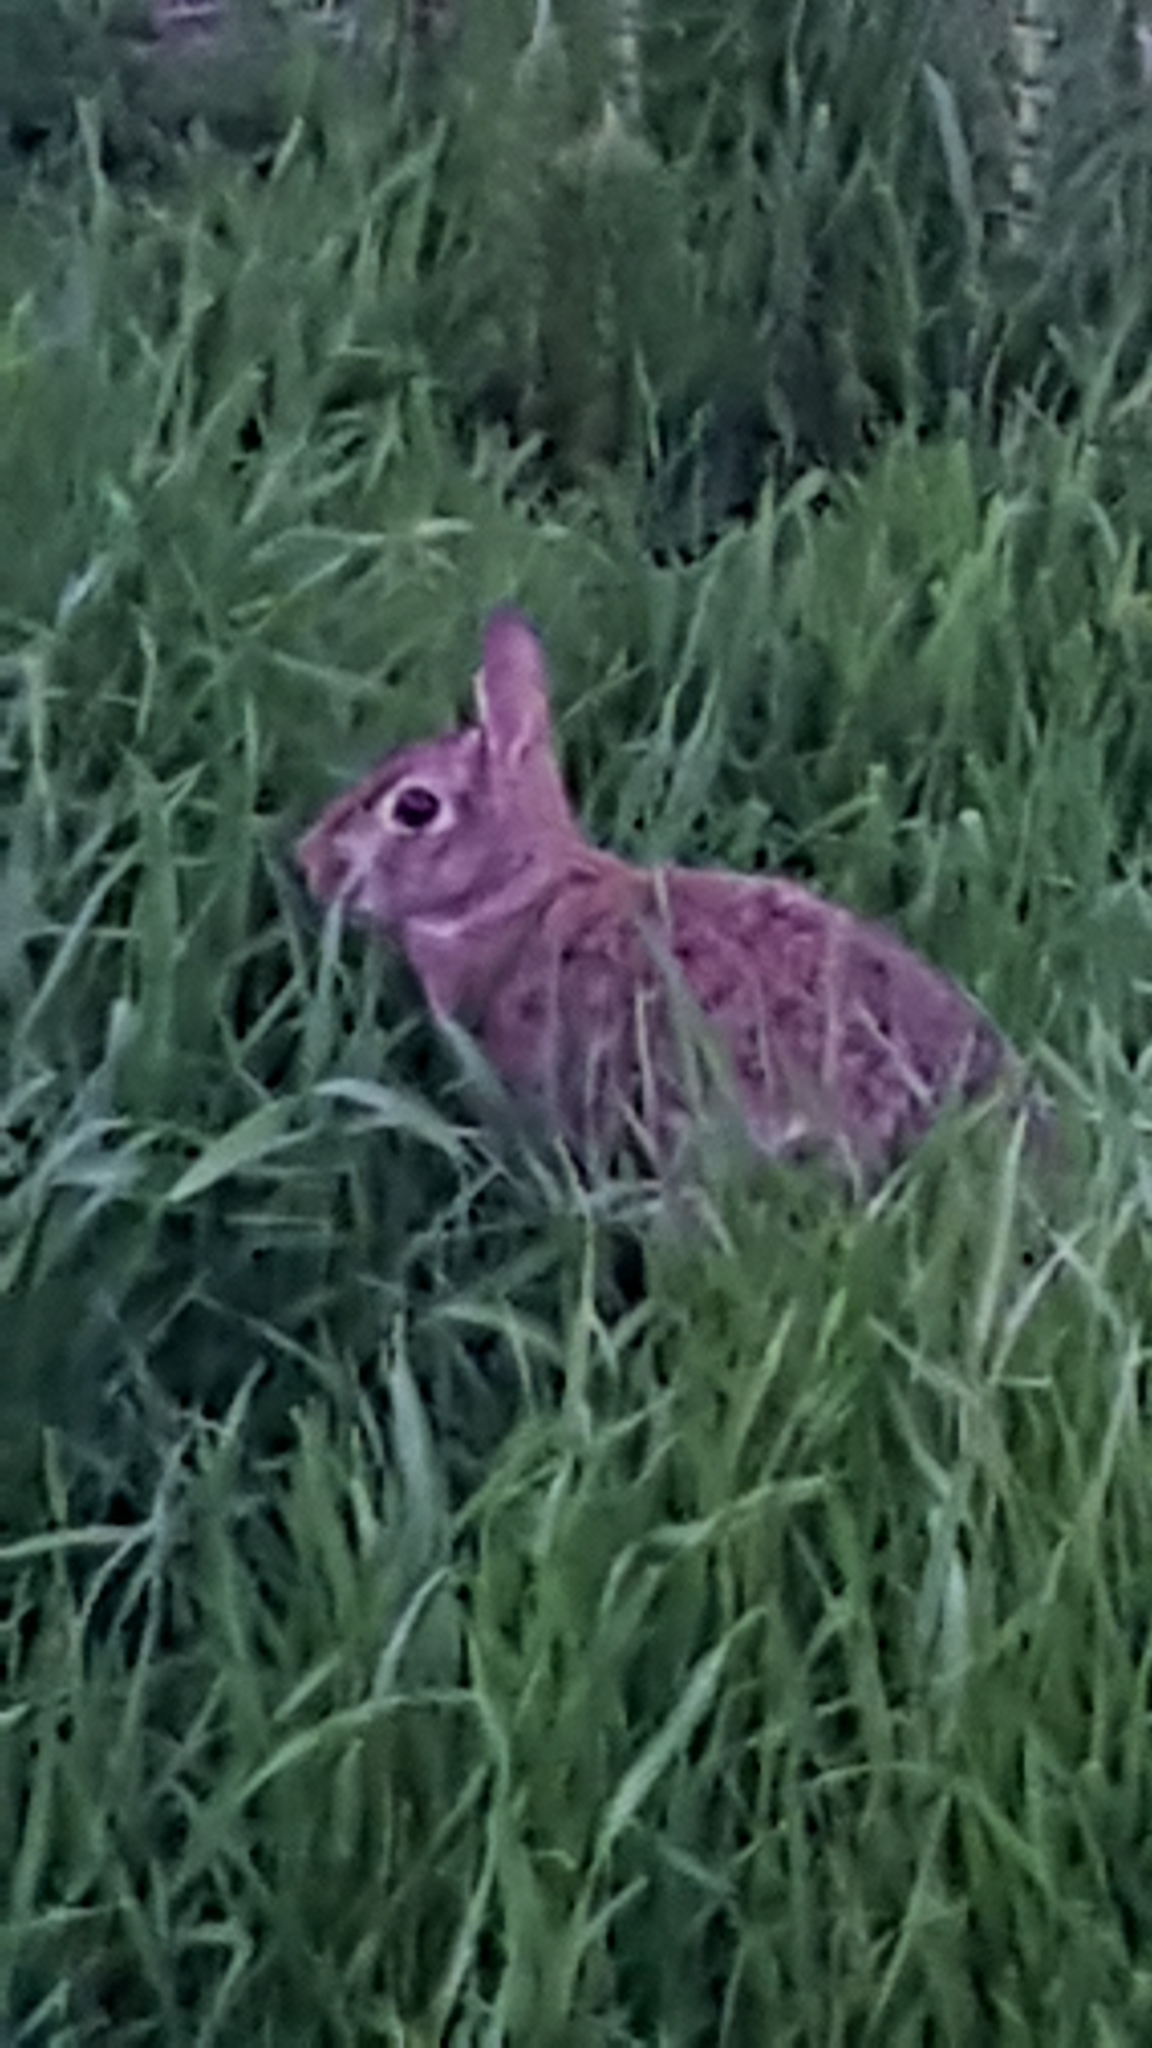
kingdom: Animalia
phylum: Chordata
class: Mammalia
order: Lagomorpha
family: Leporidae
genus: Sylvilagus
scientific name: Sylvilagus floridanus
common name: Eastern cottontail
